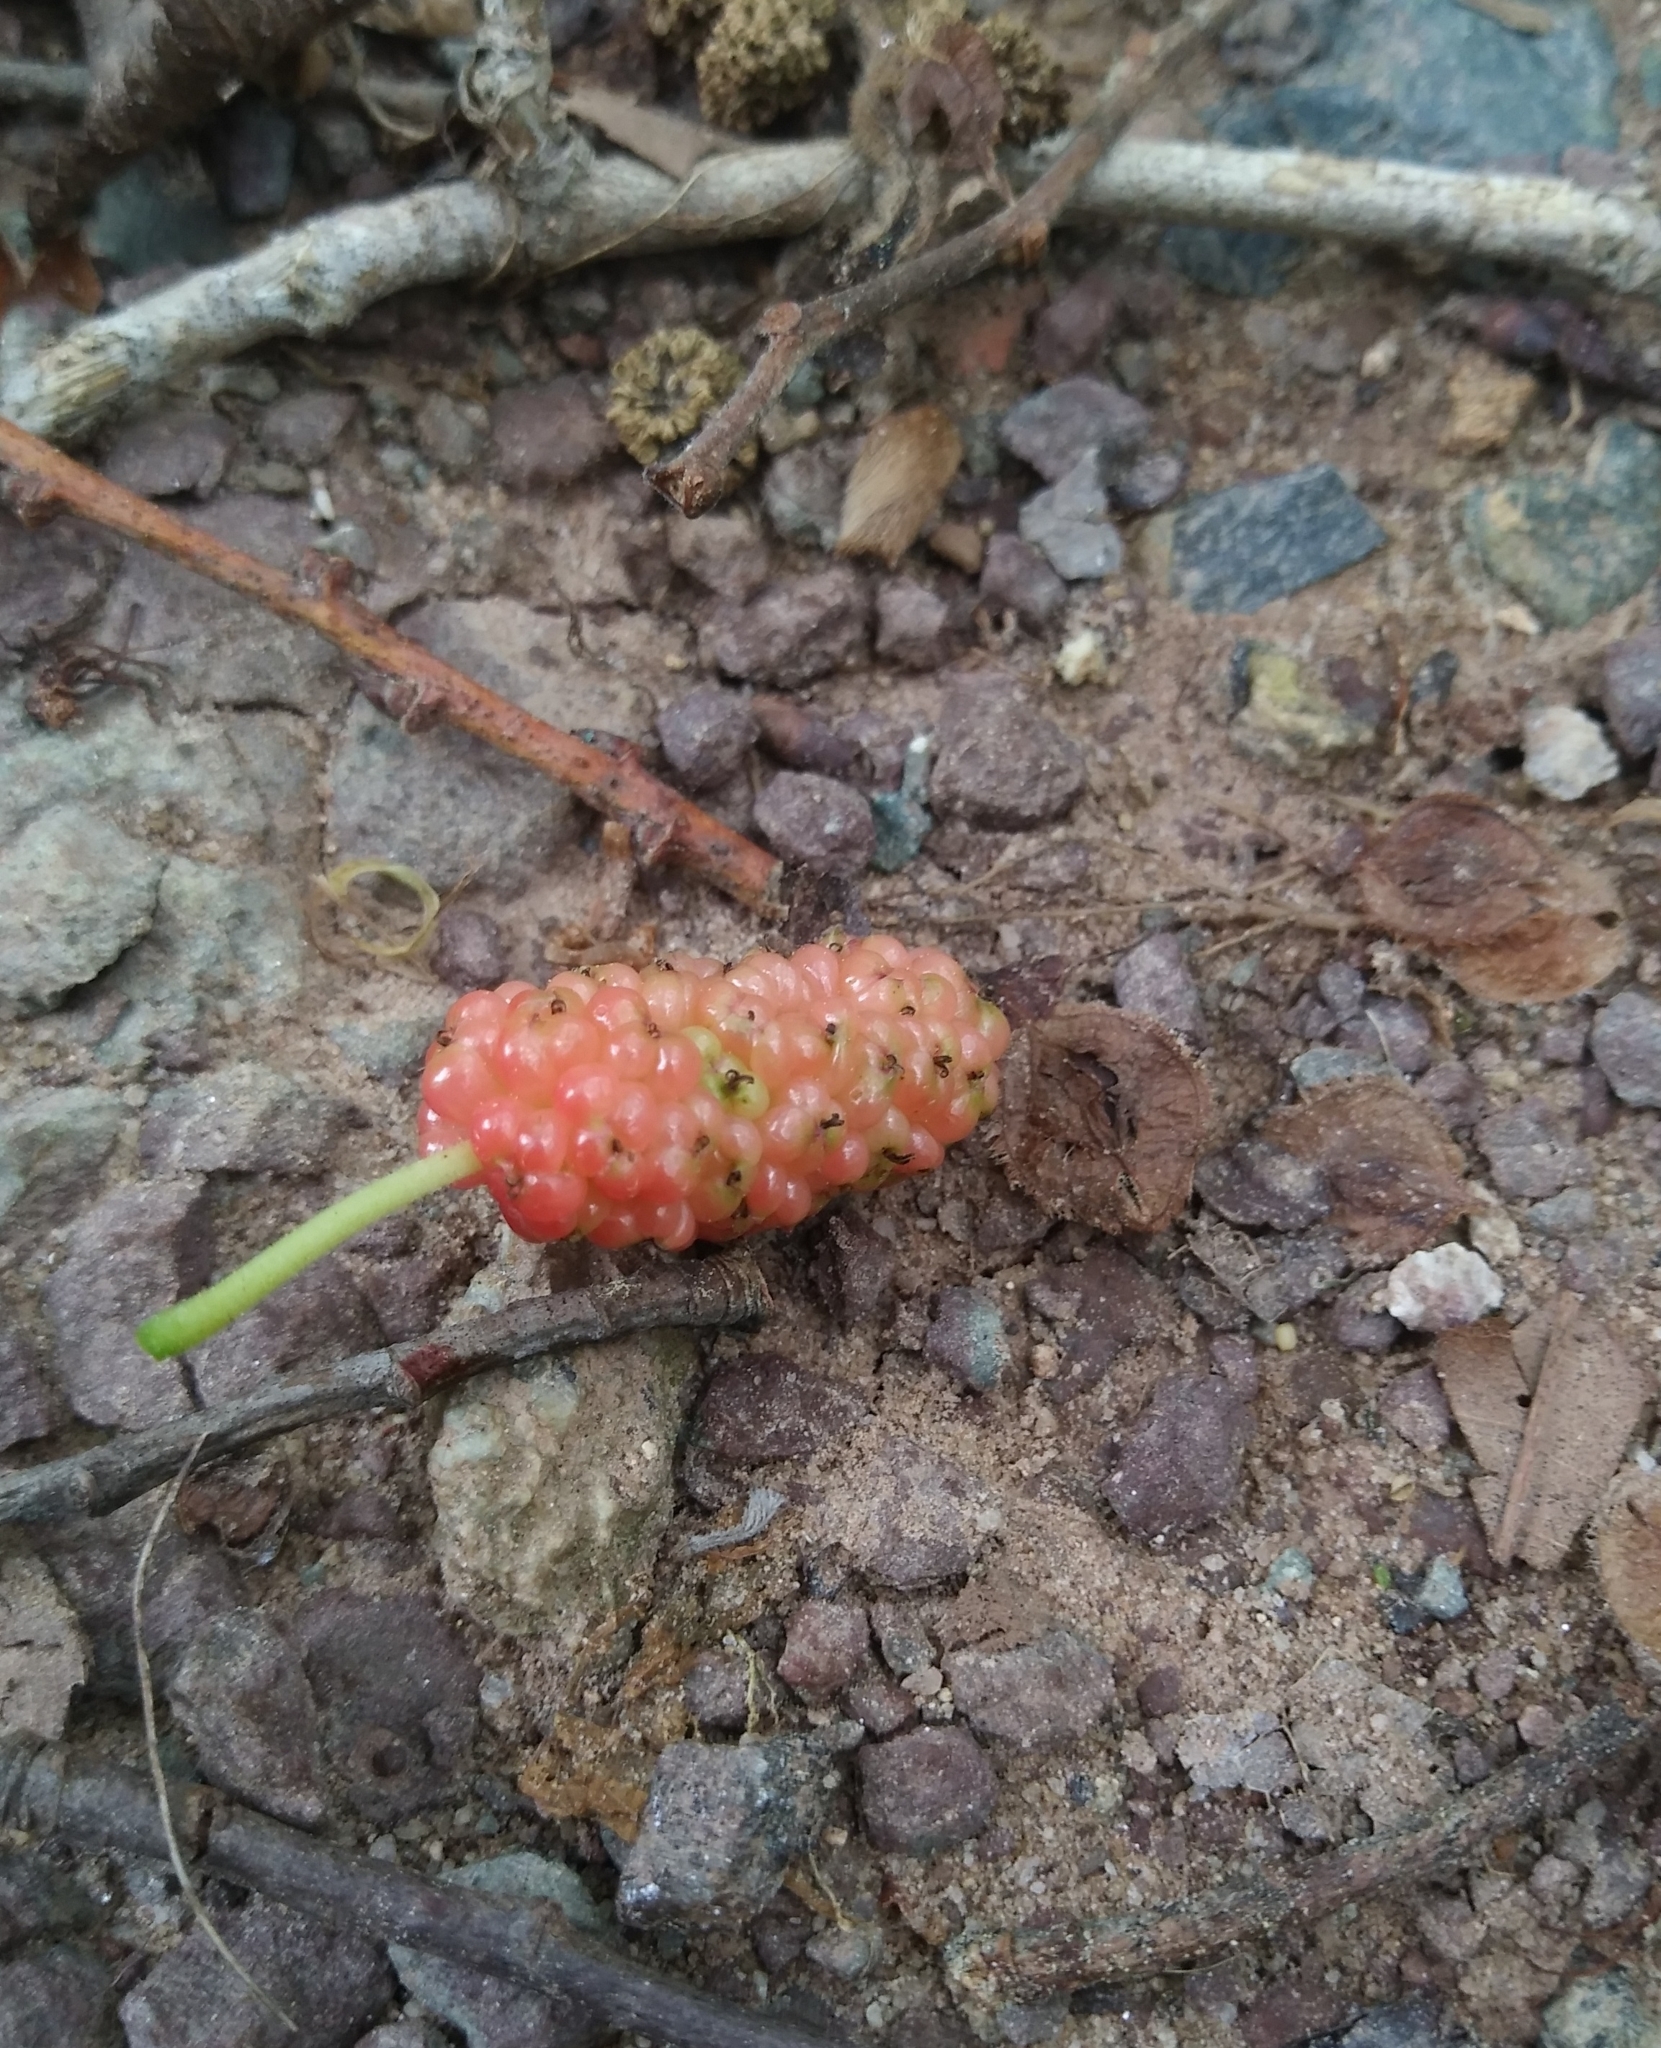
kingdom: Plantae
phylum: Tracheophyta
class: Magnoliopsida
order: Rosales
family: Moraceae
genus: Morus
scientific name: Morus alba
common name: White mulberry
